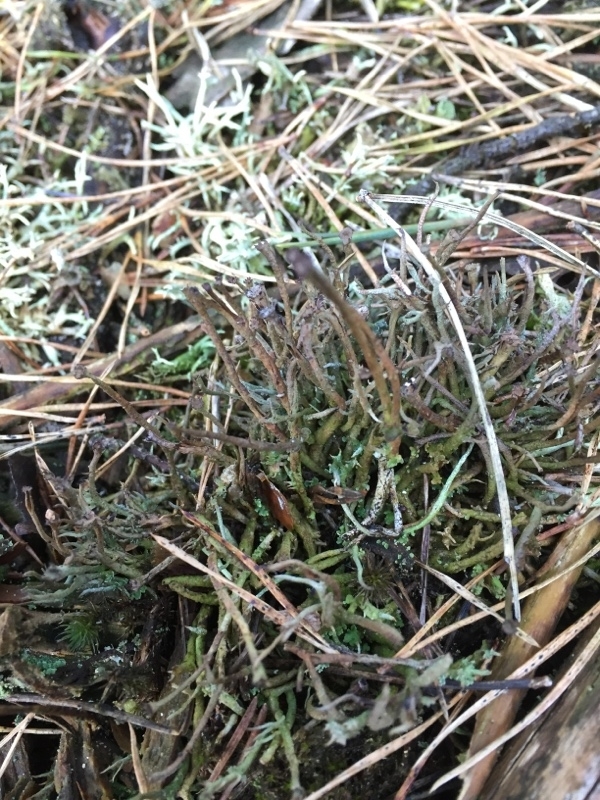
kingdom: Fungi
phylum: Ascomycota
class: Lecanoromycetes
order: Lecanorales
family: Cladoniaceae
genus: Cladonia
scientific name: Cladonia gracilis
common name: Smooth clad lichen
